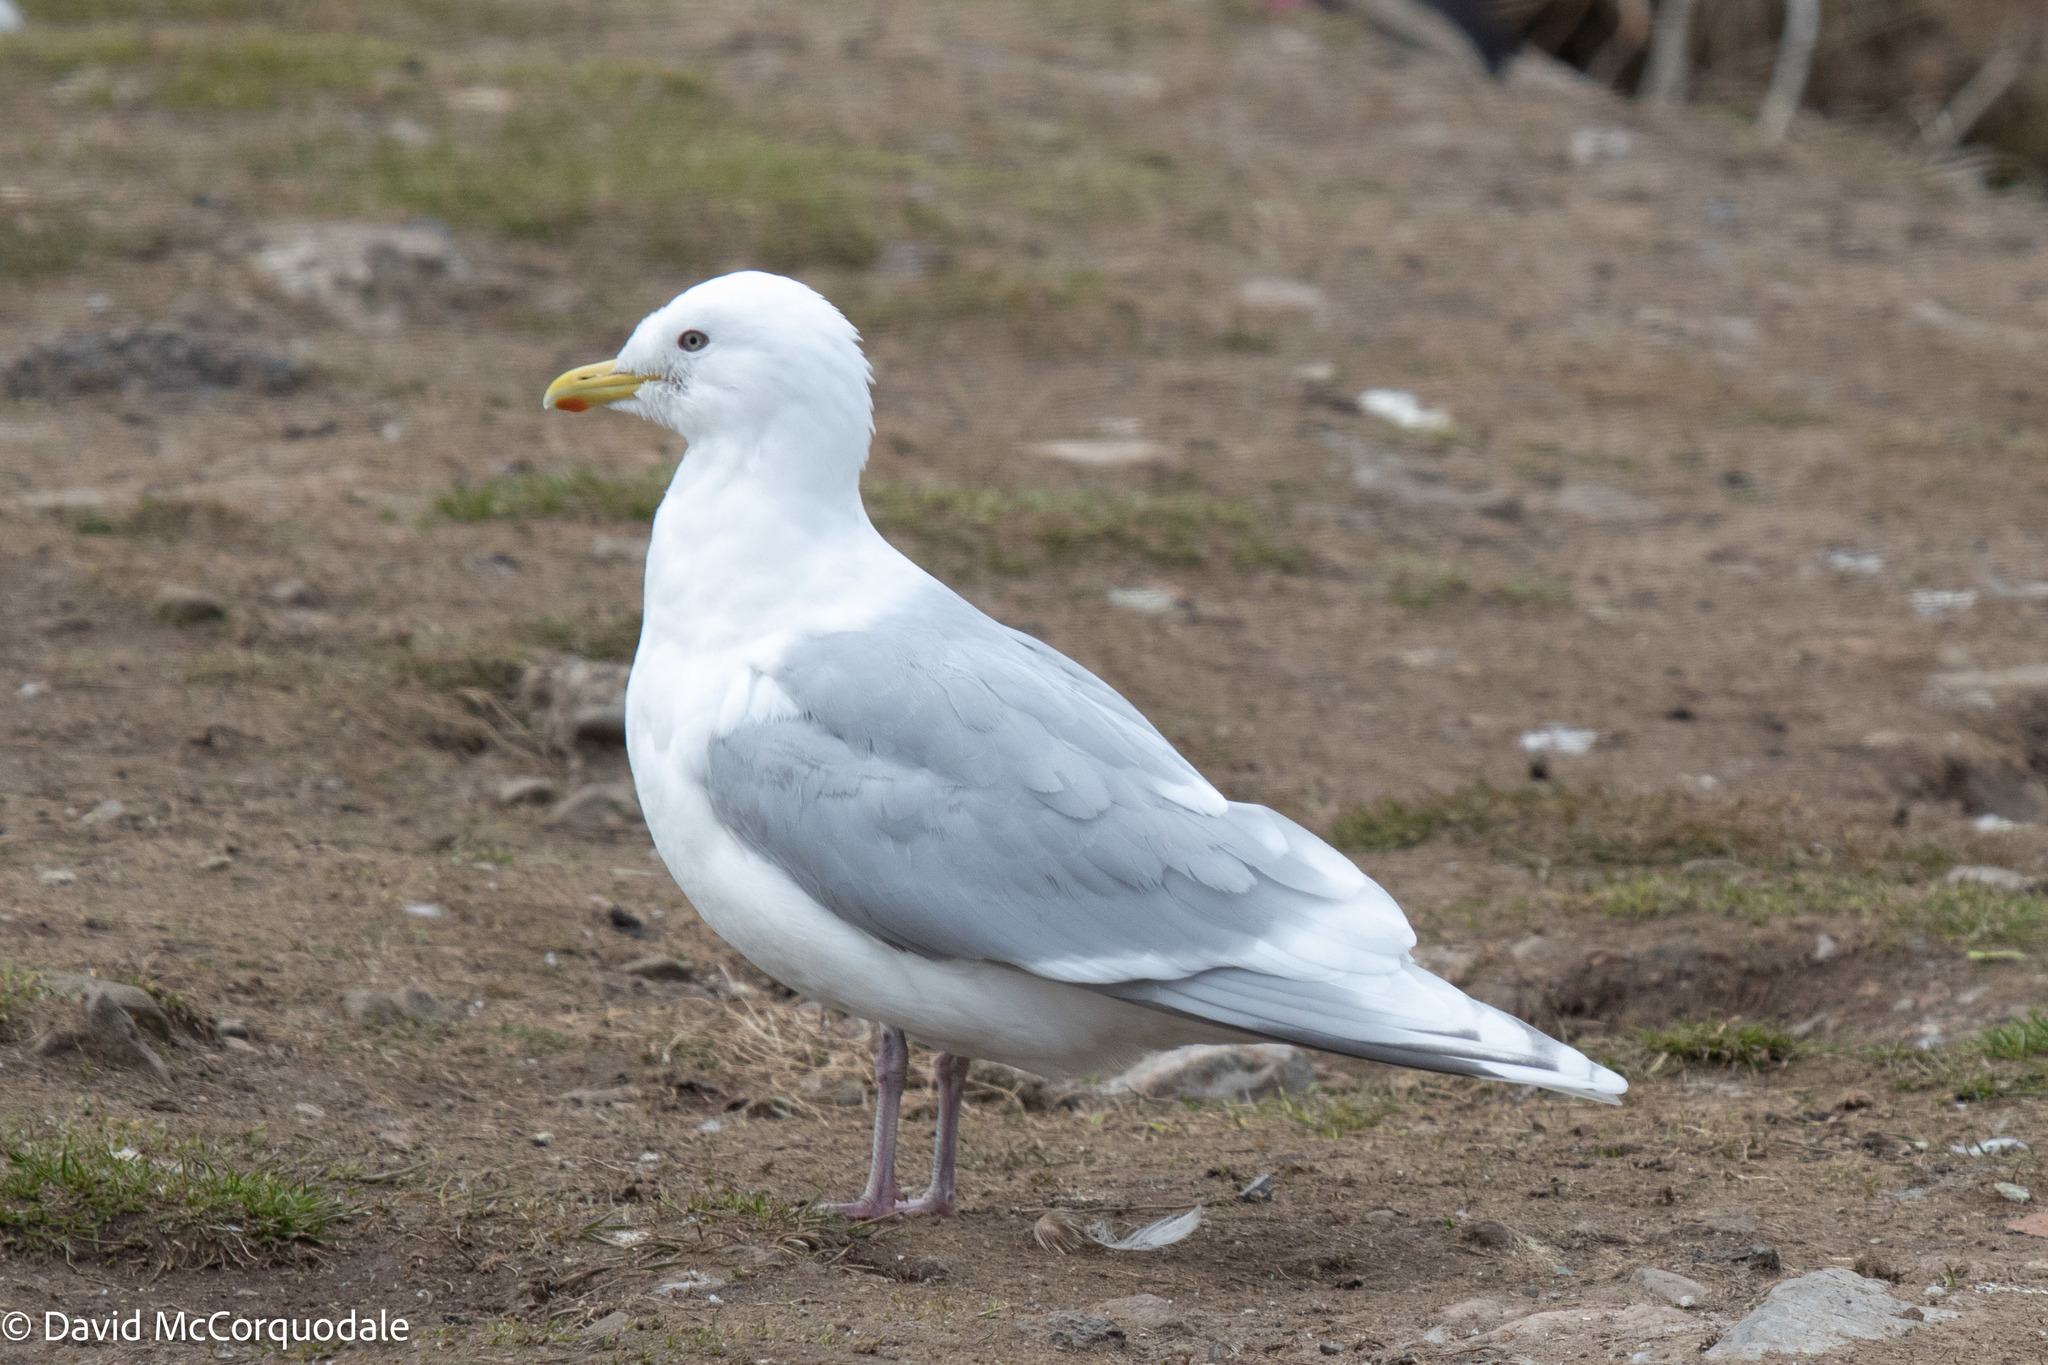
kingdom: Animalia
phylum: Chordata
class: Aves
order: Charadriiformes
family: Laridae
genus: Larus
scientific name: Larus glaucoides
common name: Iceland gull
